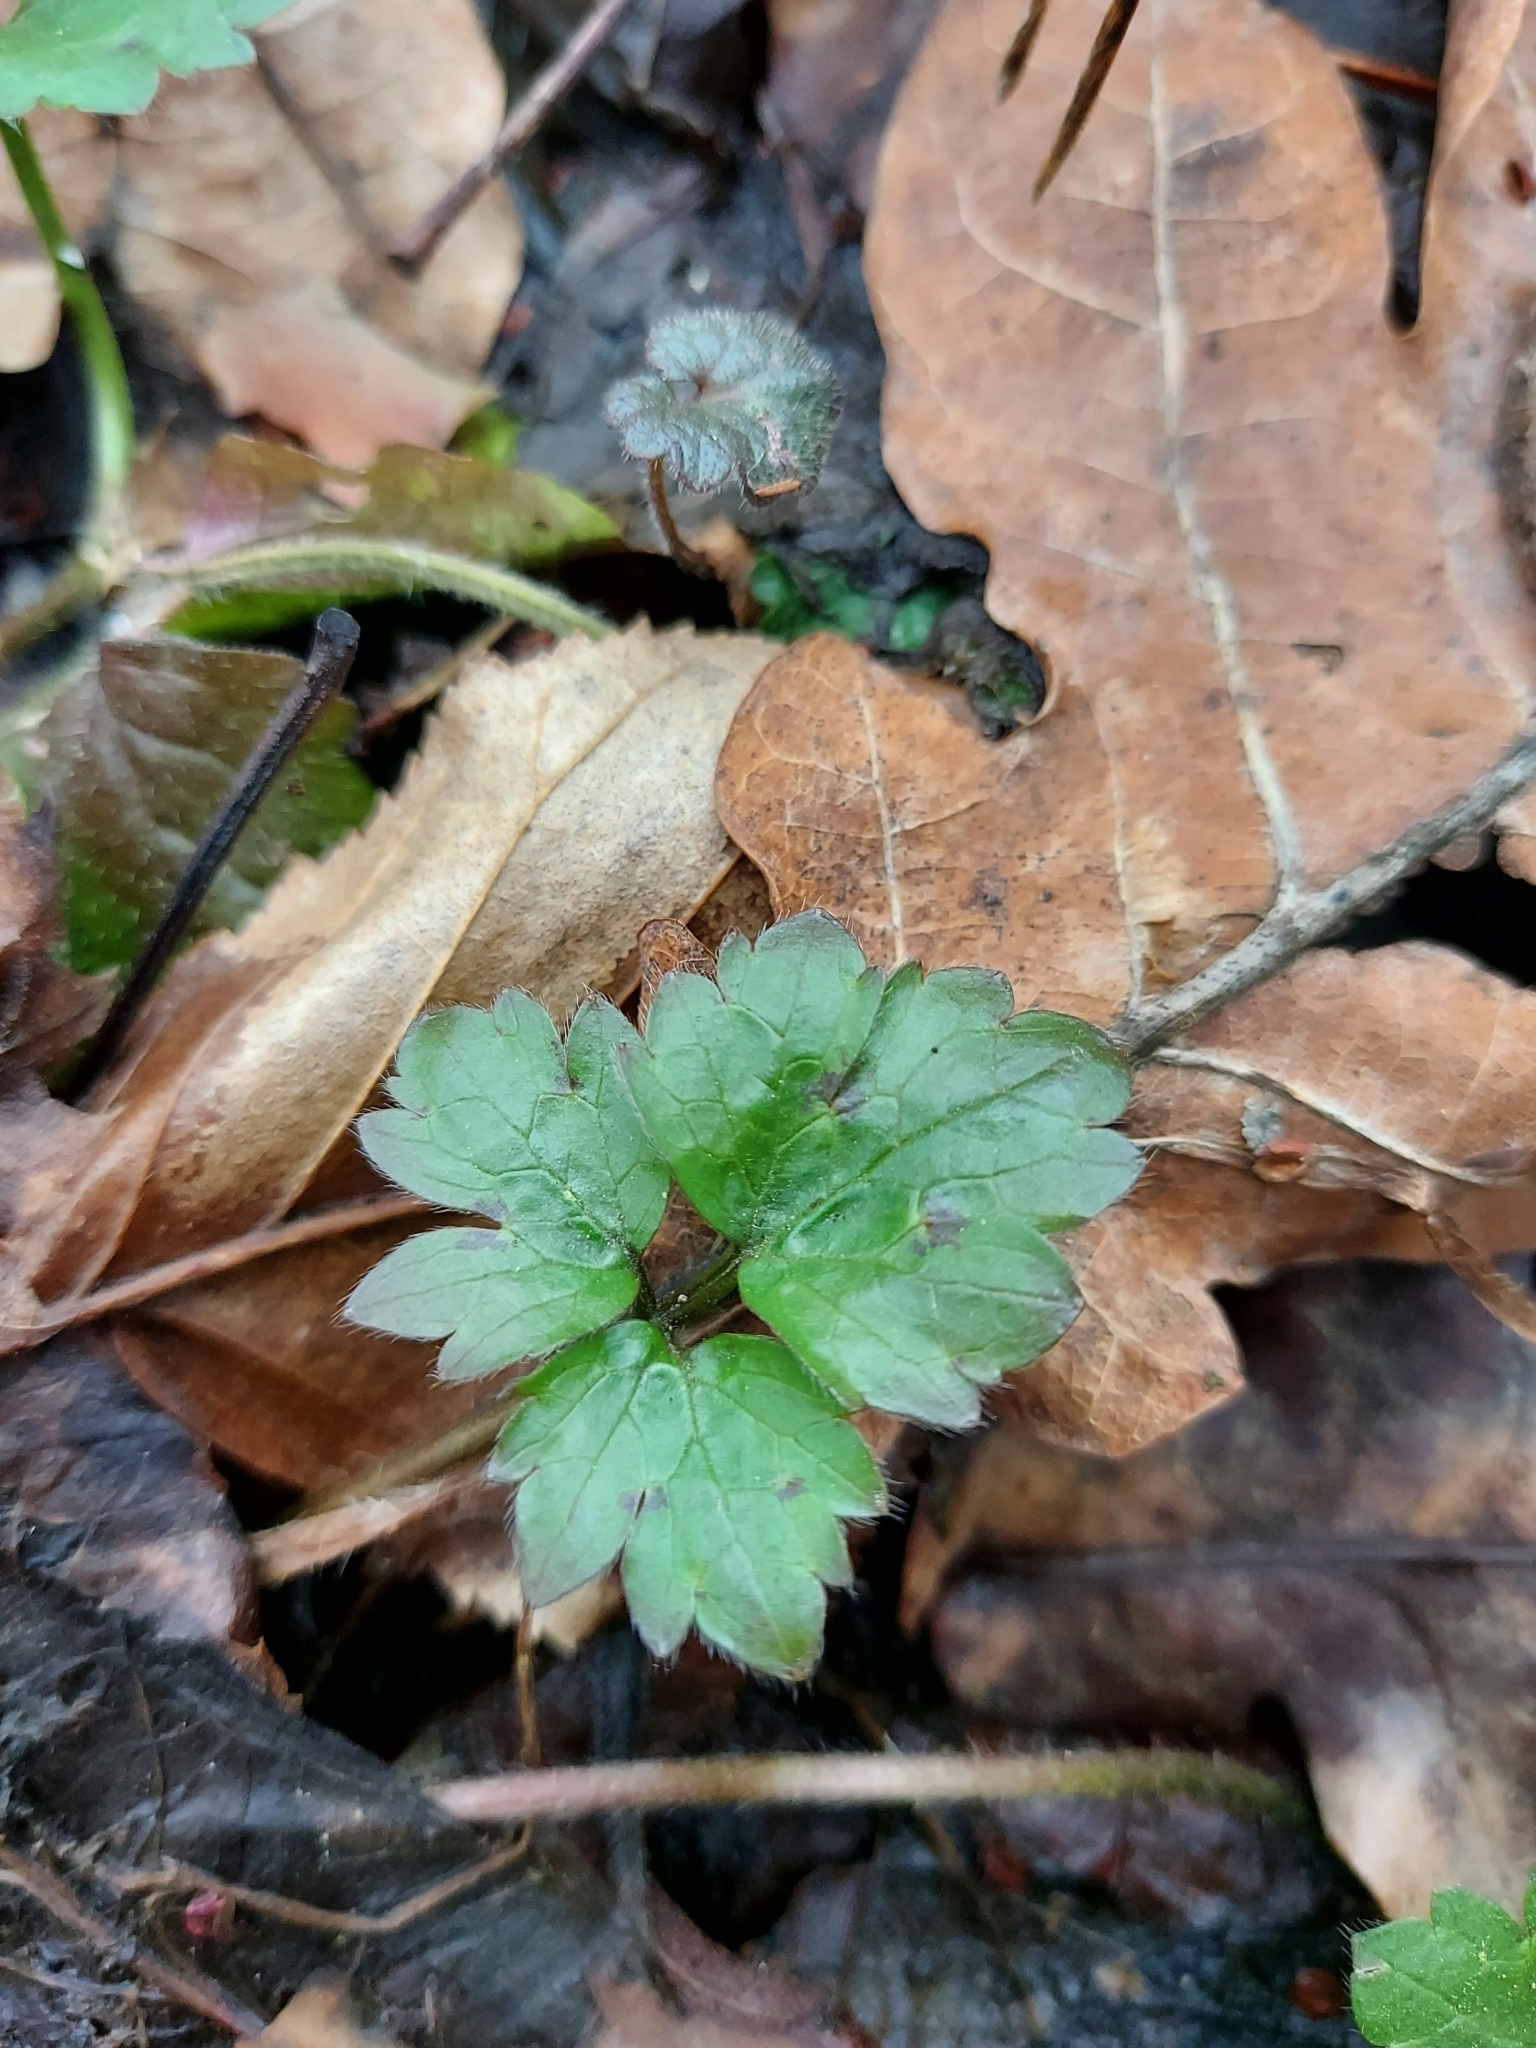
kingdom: Plantae
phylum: Tracheophyta
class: Magnoliopsida
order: Ranunculales
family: Ranunculaceae
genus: Ranunculus
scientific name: Ranunculus repens
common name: Creeping buttercup
